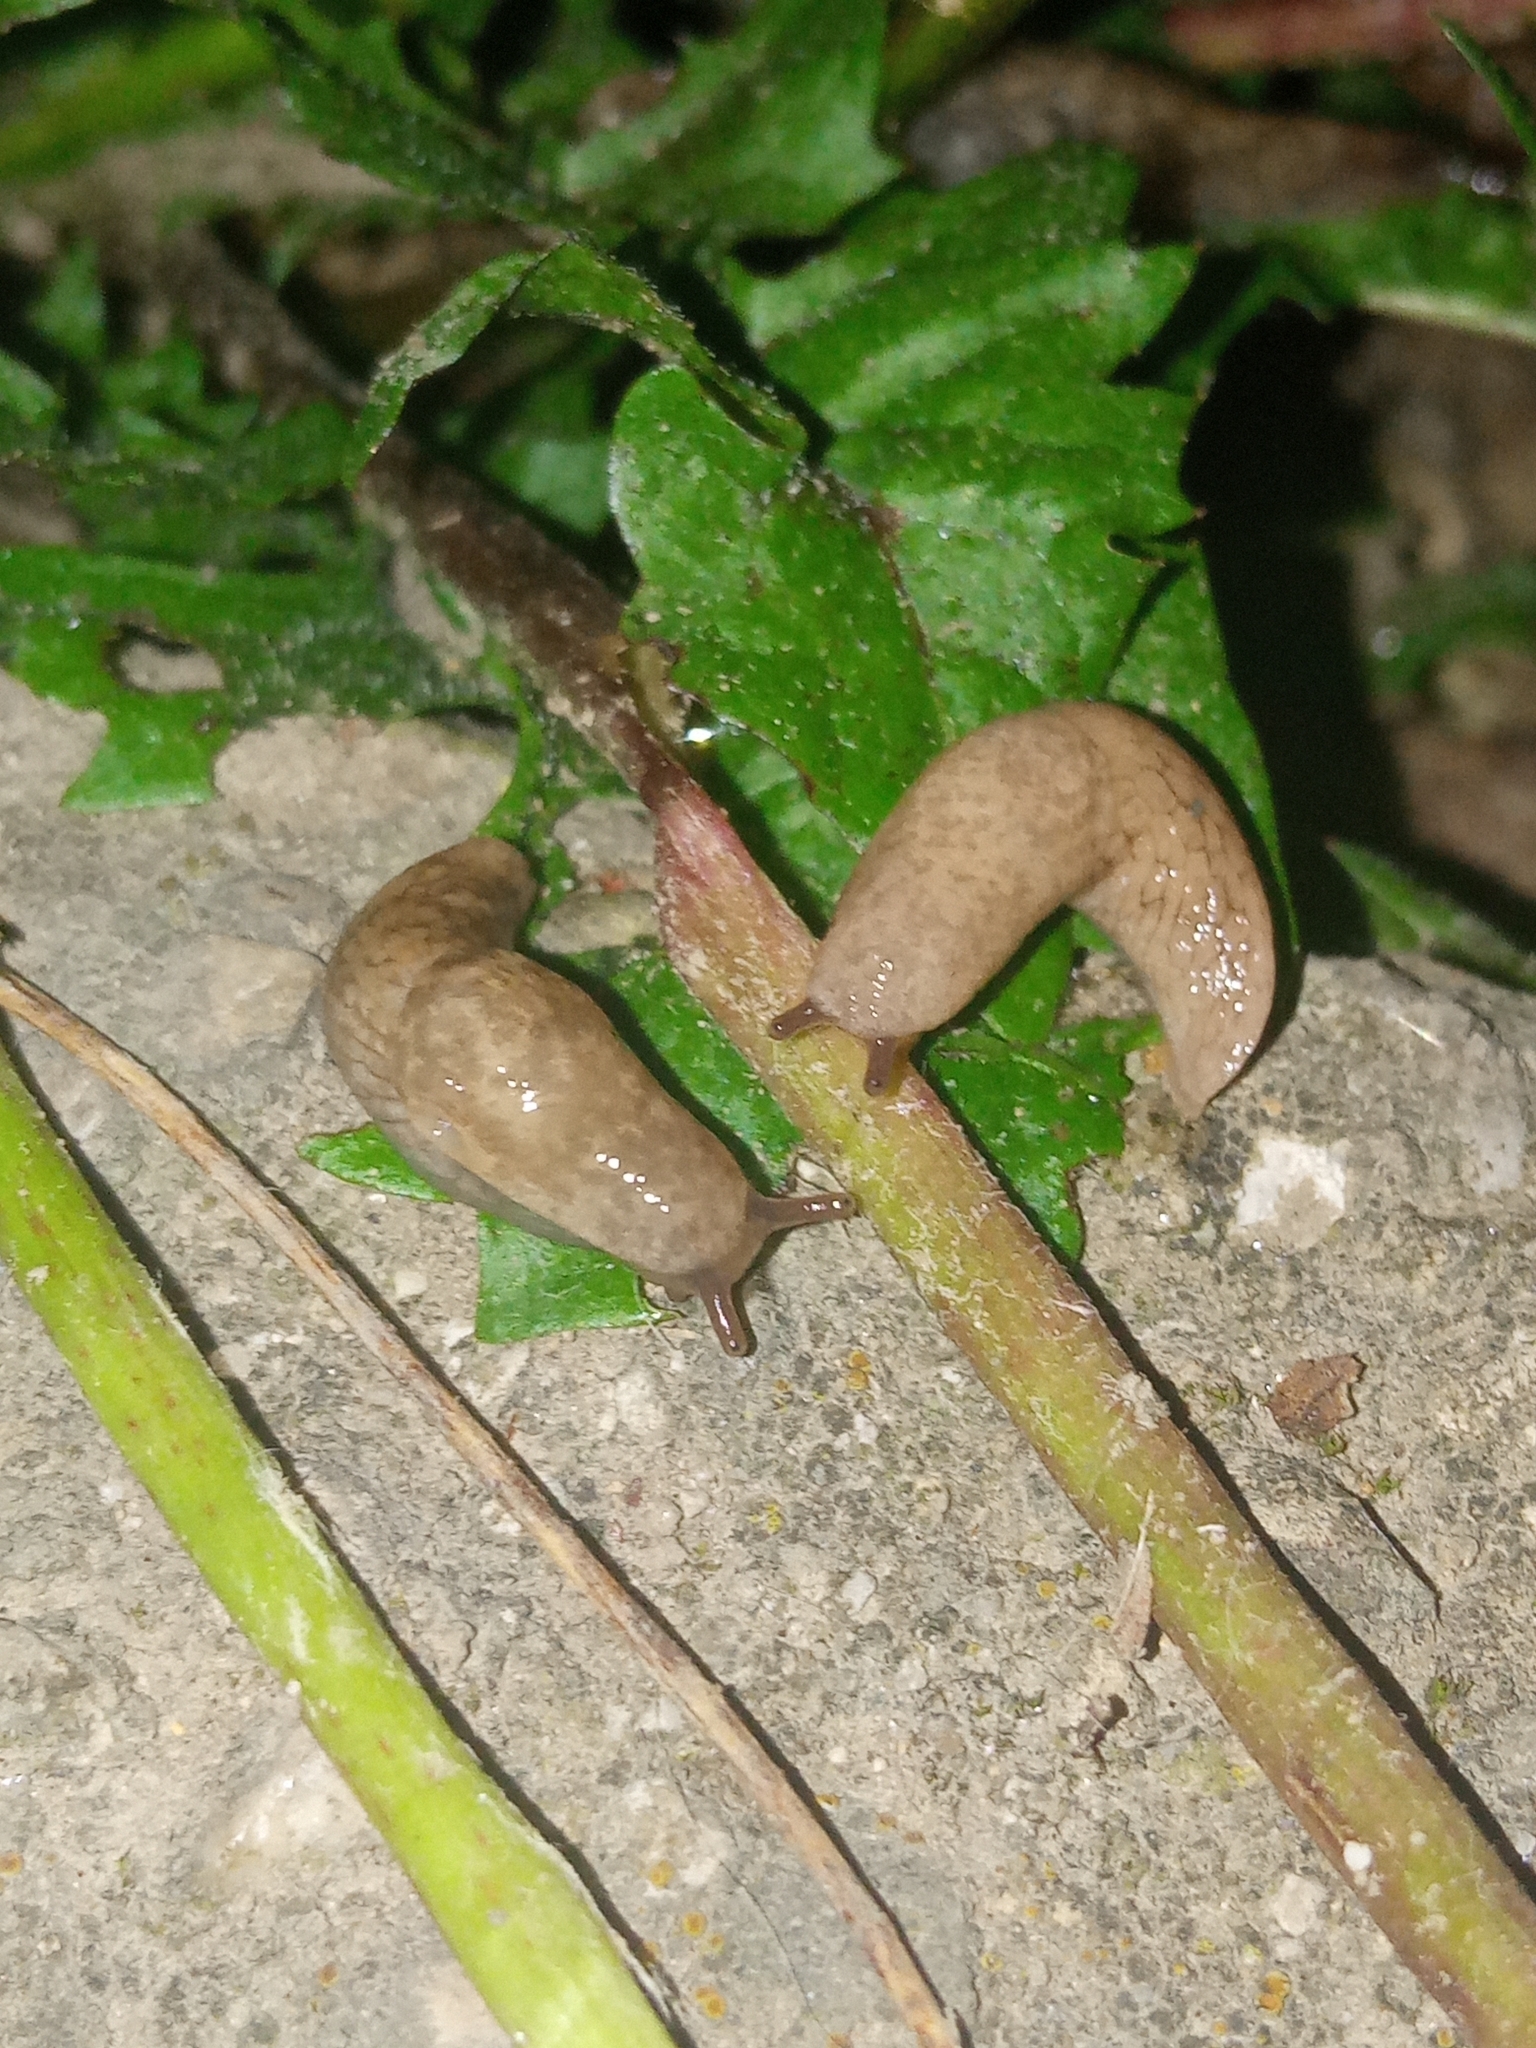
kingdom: Animalia
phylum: Mollusca
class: Gastropoda
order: Stylommatophora
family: Agriolimacidae
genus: Deroceras
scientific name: Deroceras reticulatum
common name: Gray field slug
